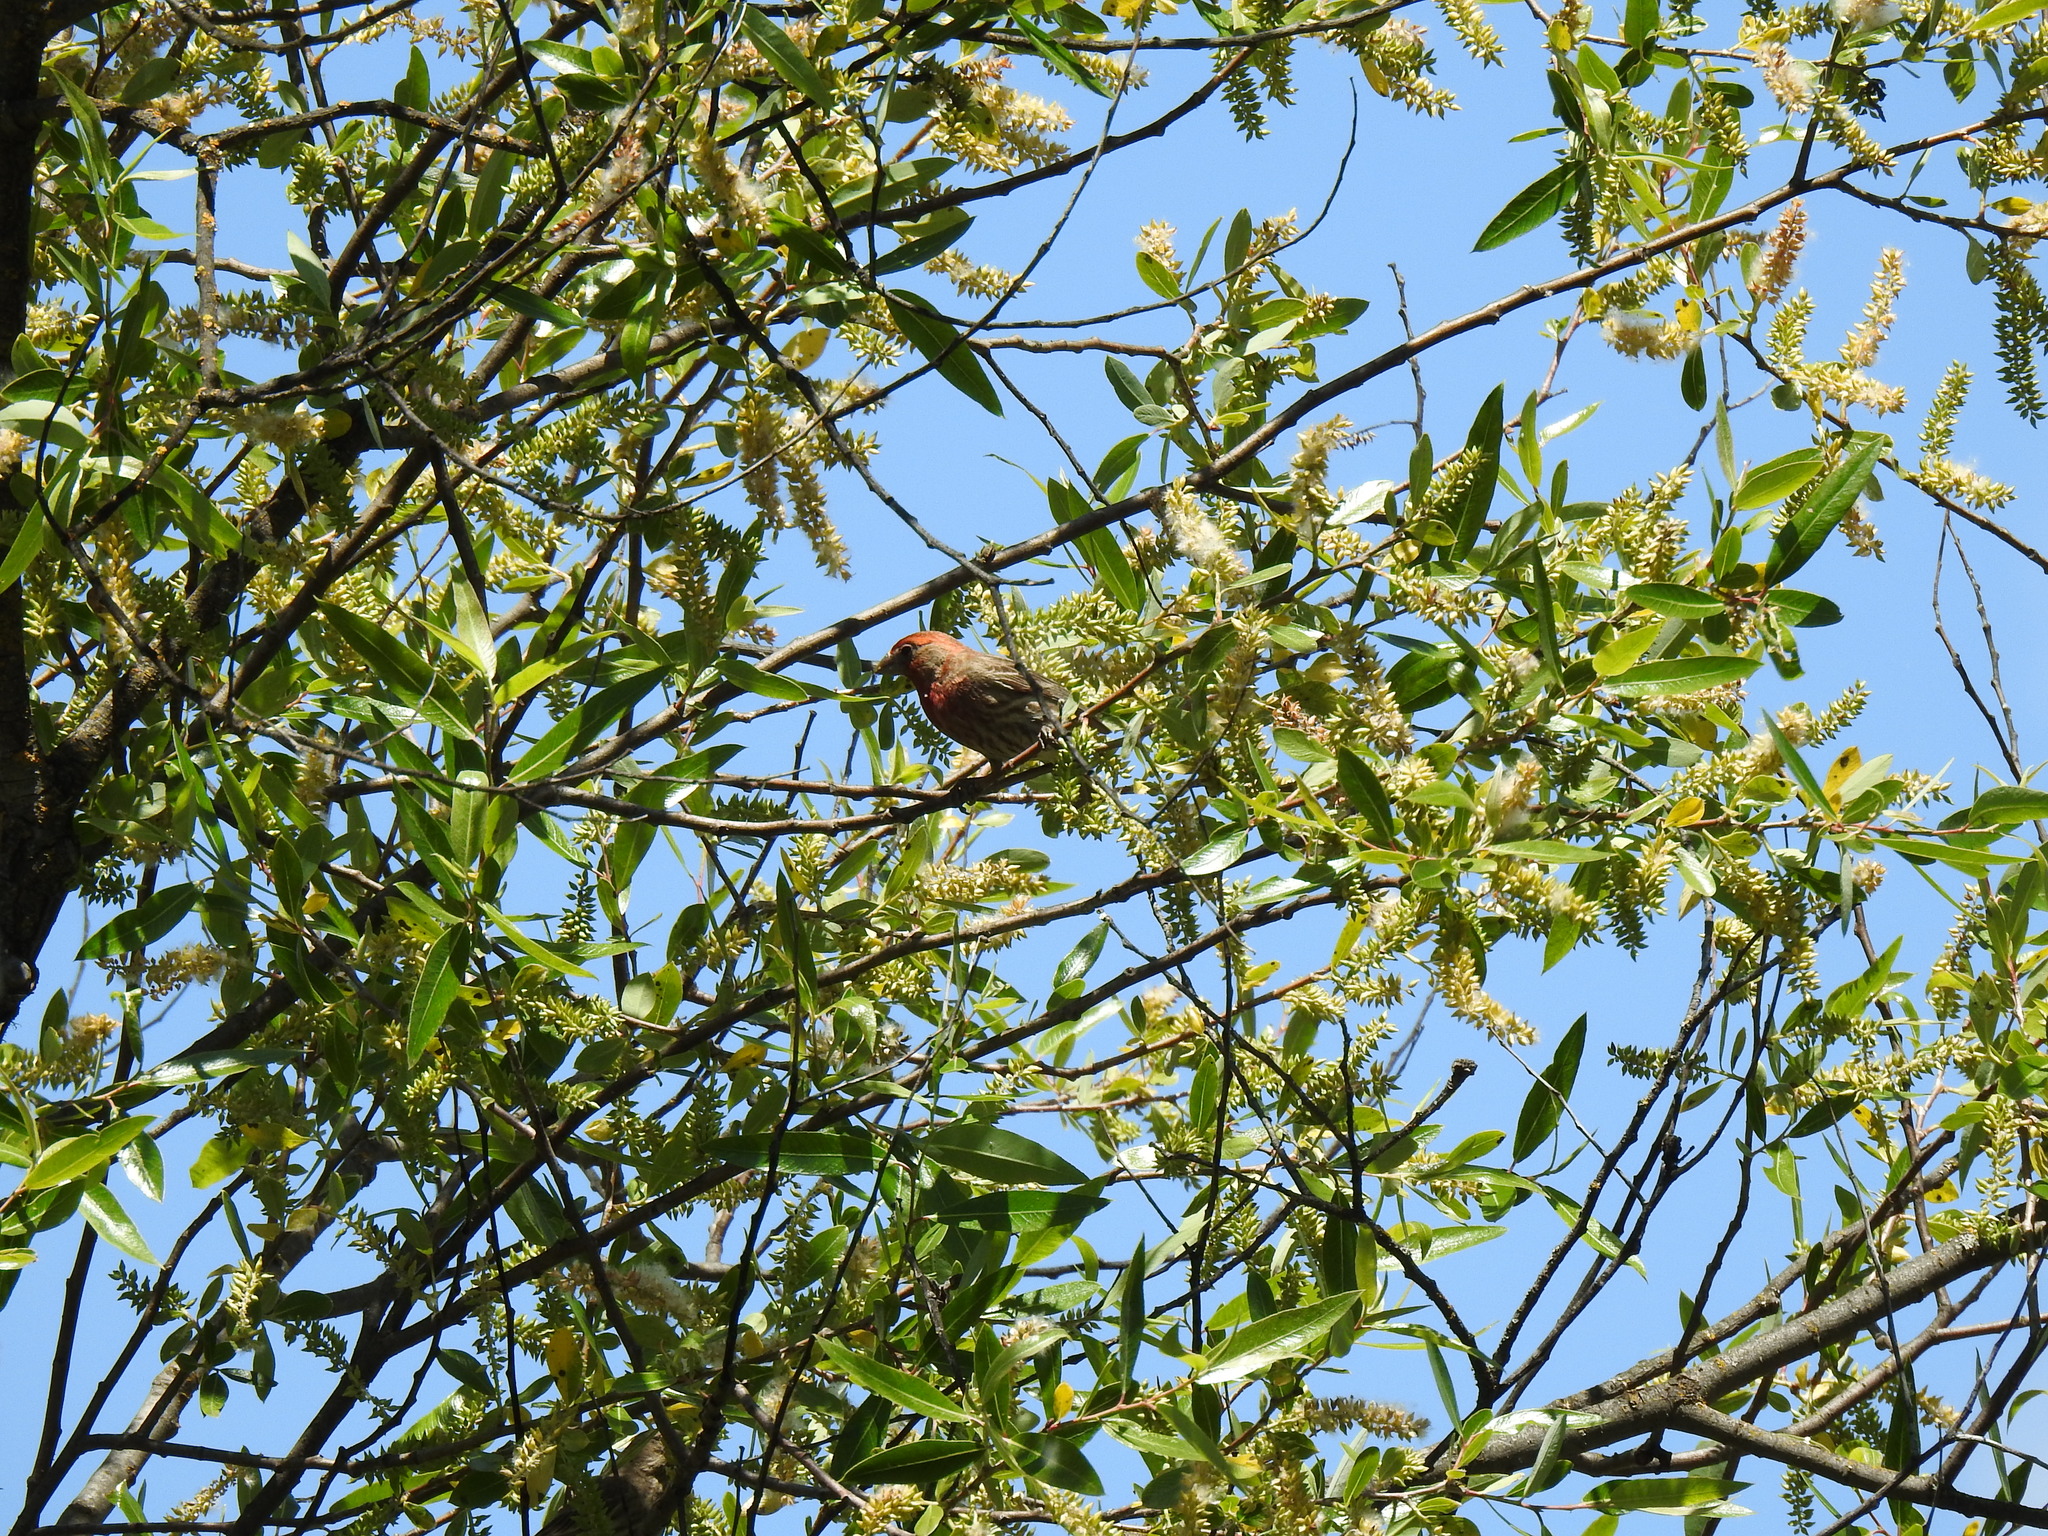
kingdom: Animalia
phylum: Chordata
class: Aves
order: Passeriformes
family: Fringillidae
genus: Haemorhous
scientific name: Haemorhous mexicanus
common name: House finch
